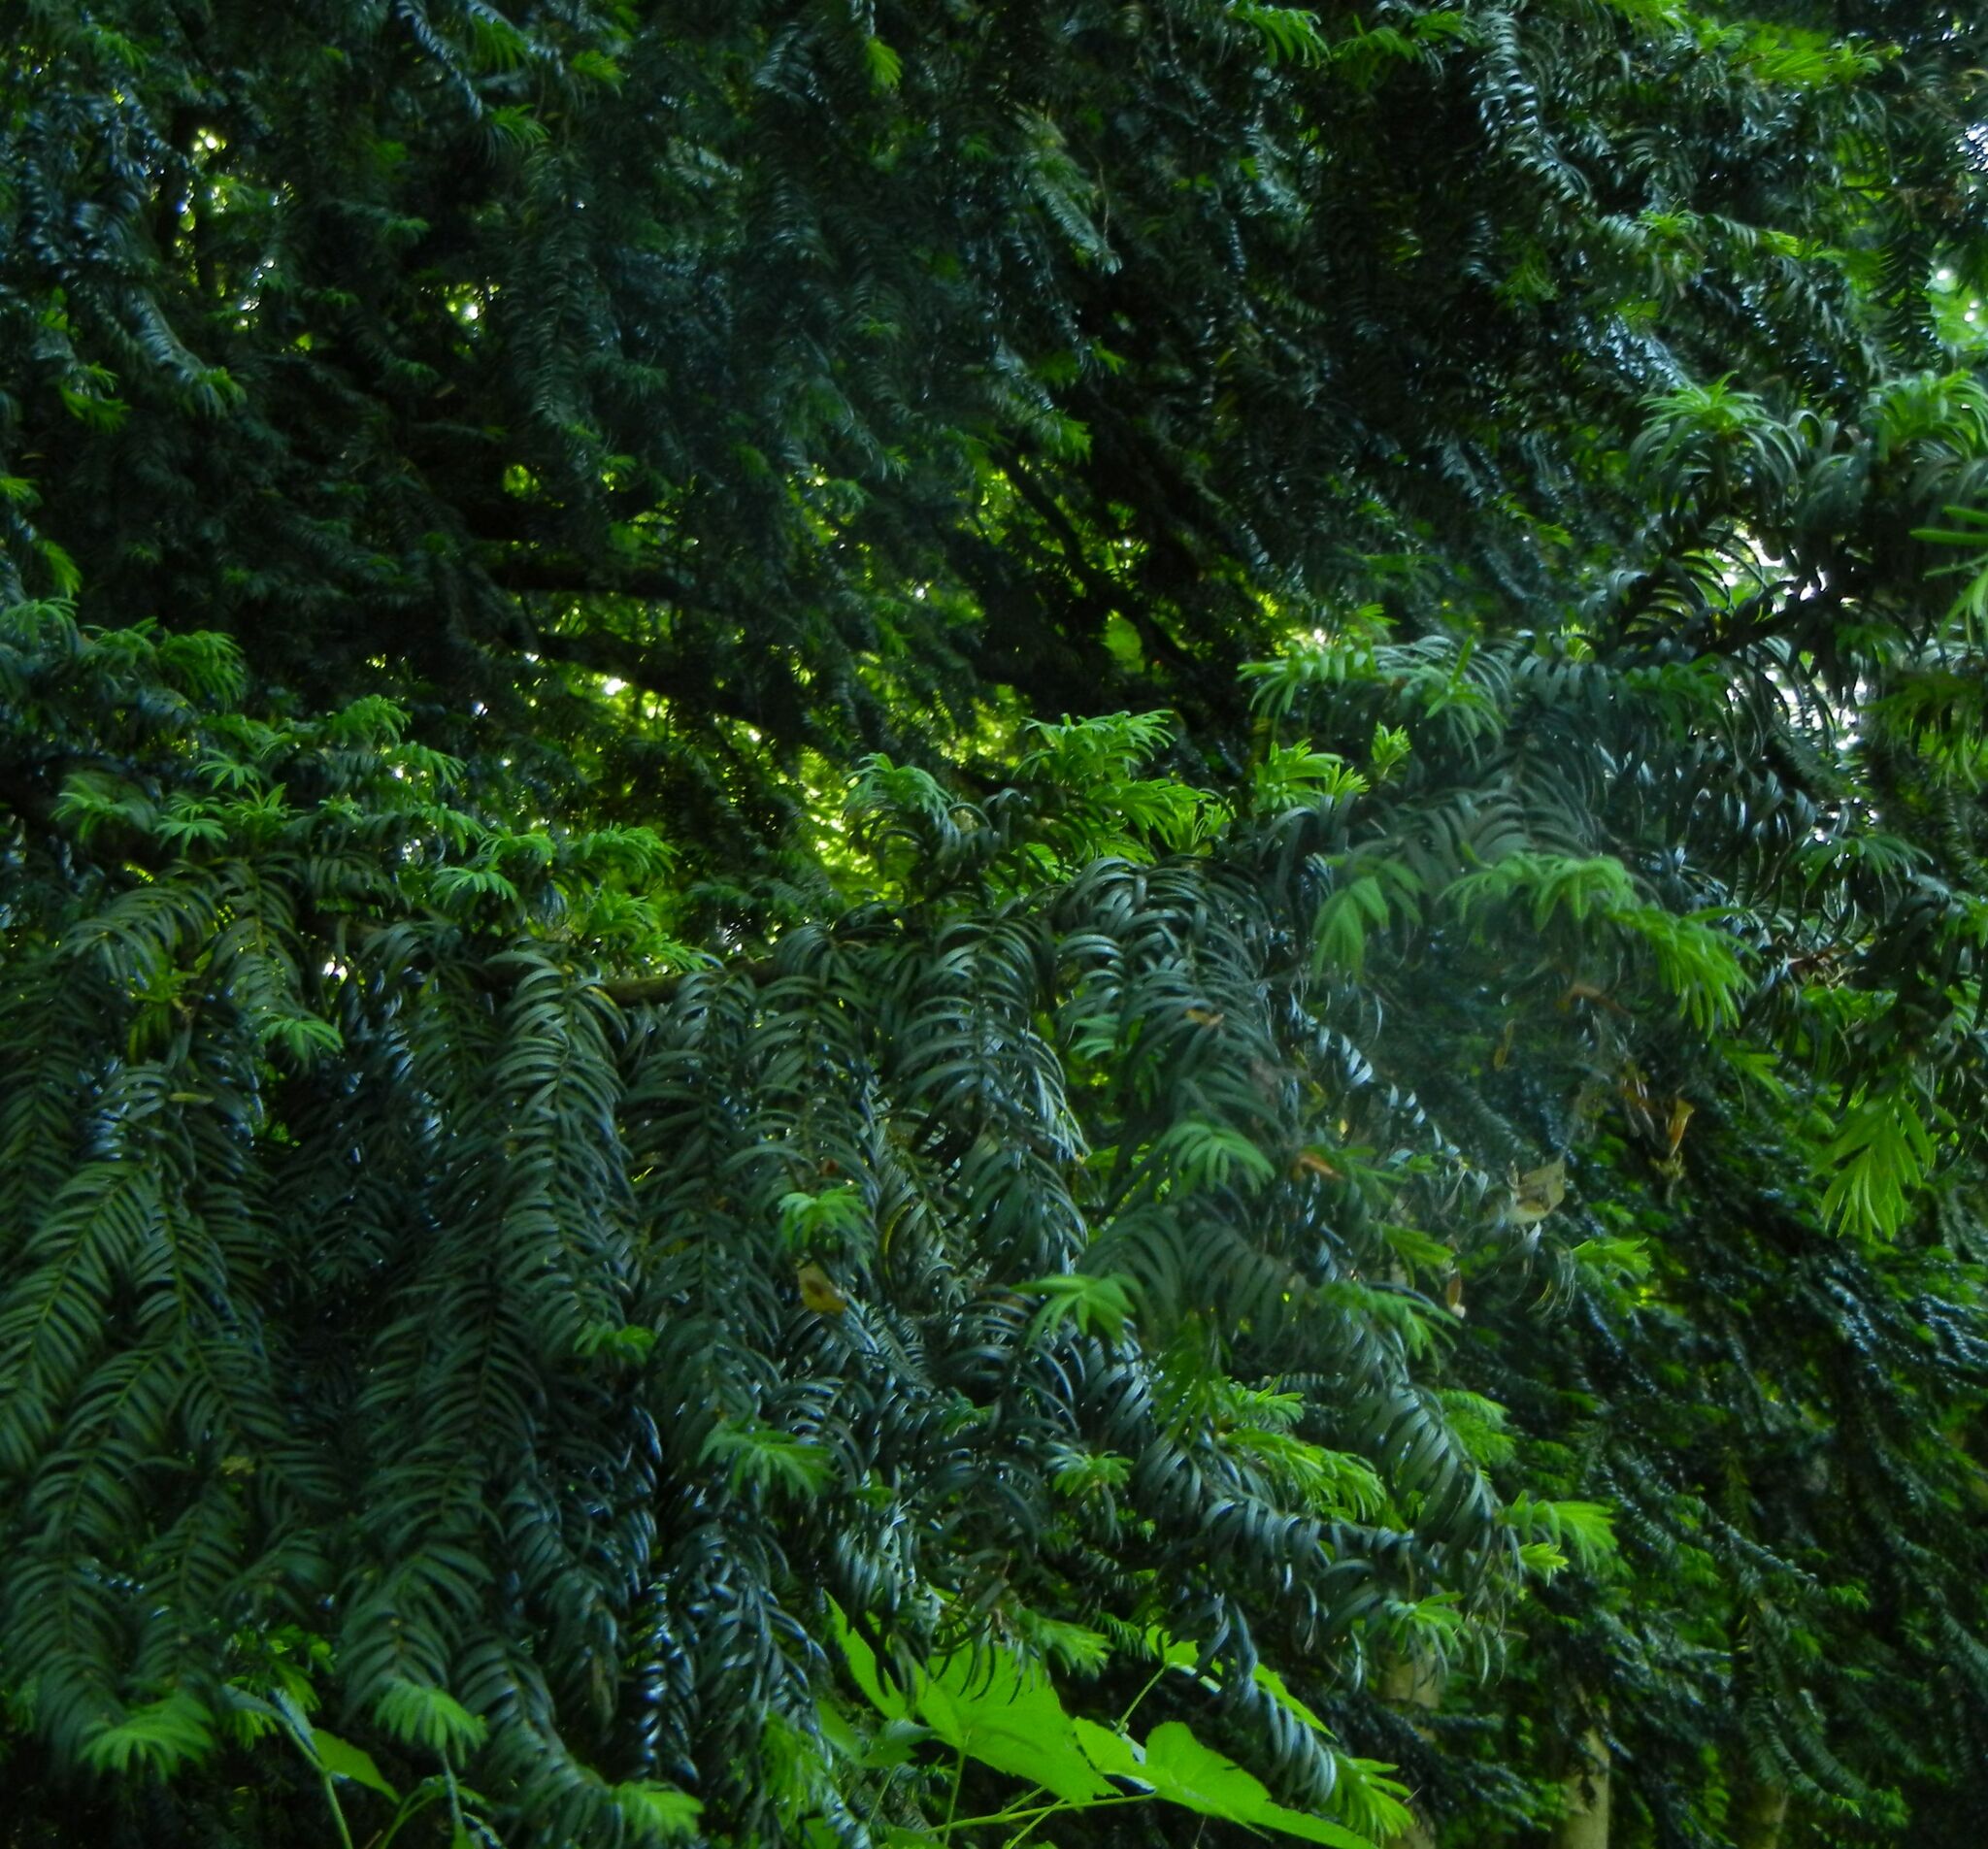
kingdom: Plantae
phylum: Tracheophyta
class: Pinopsida
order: Pinales
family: Taxaceae
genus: Taxus
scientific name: Taxus baccata
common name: Yew
